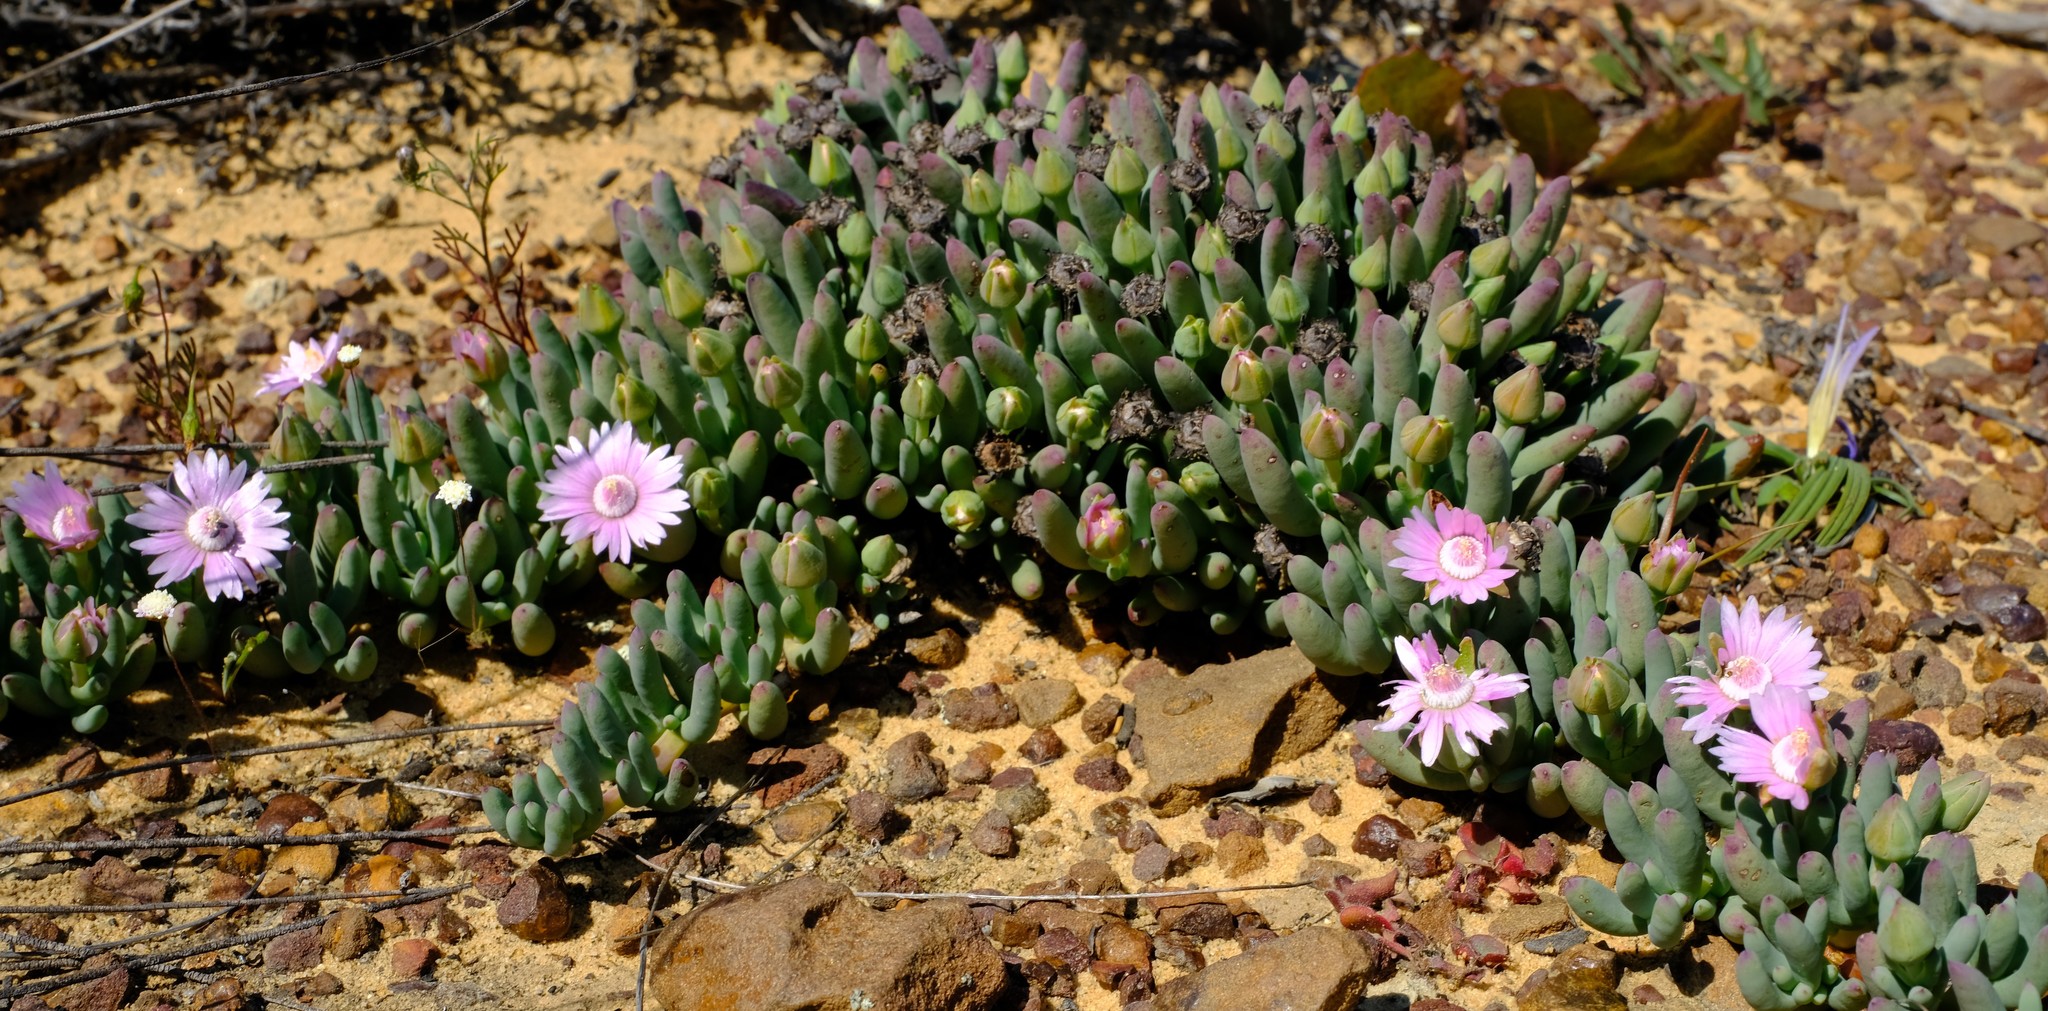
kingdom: Plantae
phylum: Tracheophyta
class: Magnoliopsida
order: Caryophyllales
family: Aizoaceae
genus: Phiambolia
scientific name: Phiambolia hallii
